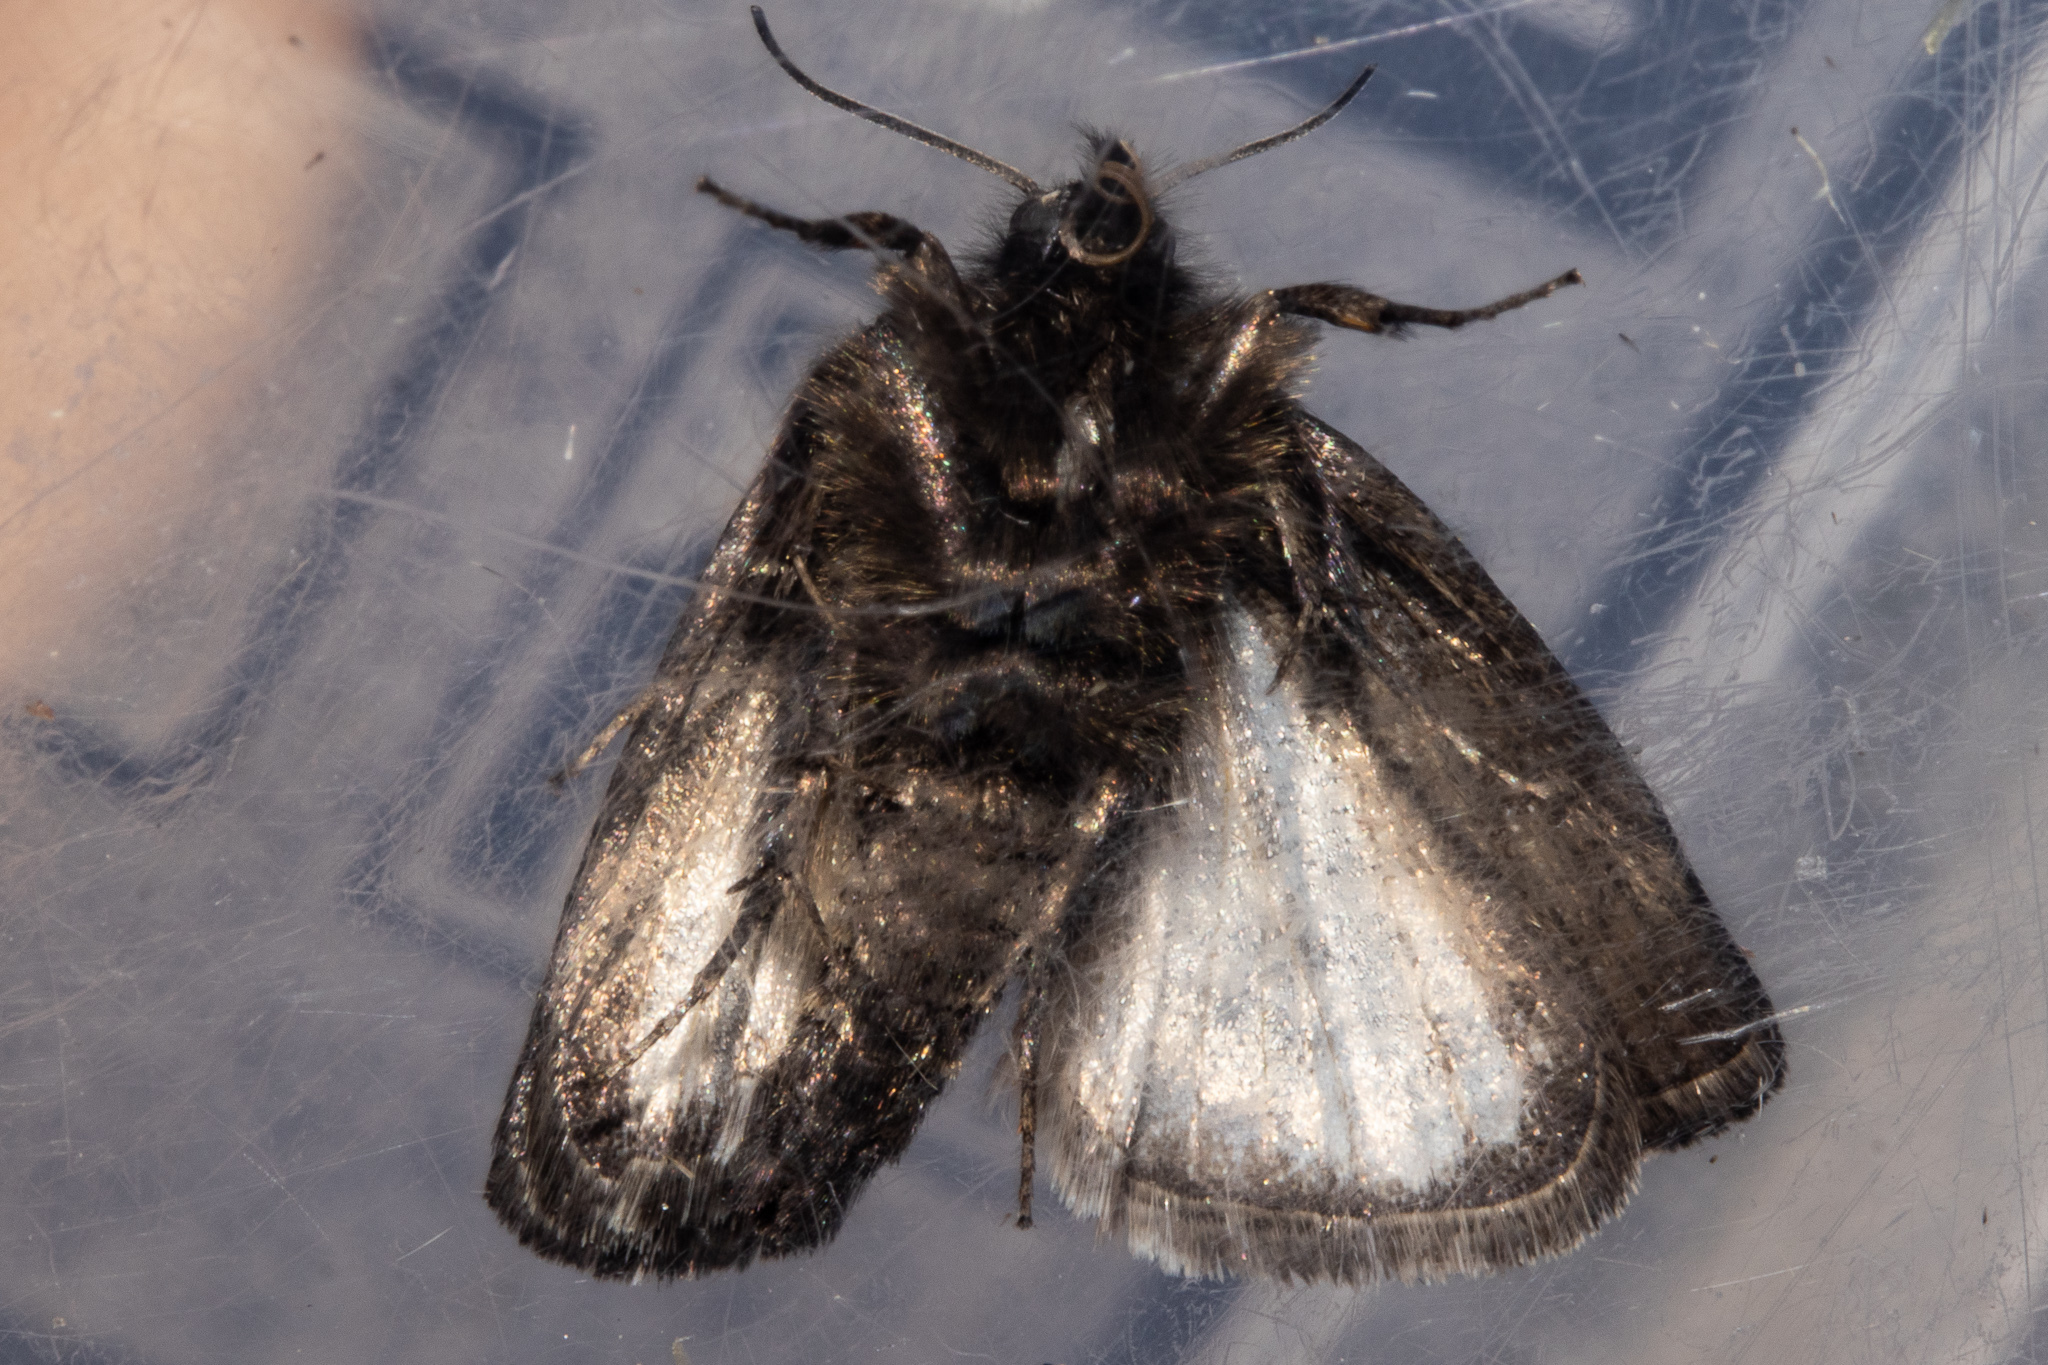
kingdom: Animalia
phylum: Arthropoda
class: Insecta
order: Lepidoptera
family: Crambidae
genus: Orocrambus
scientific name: Orocrambus clarkei
